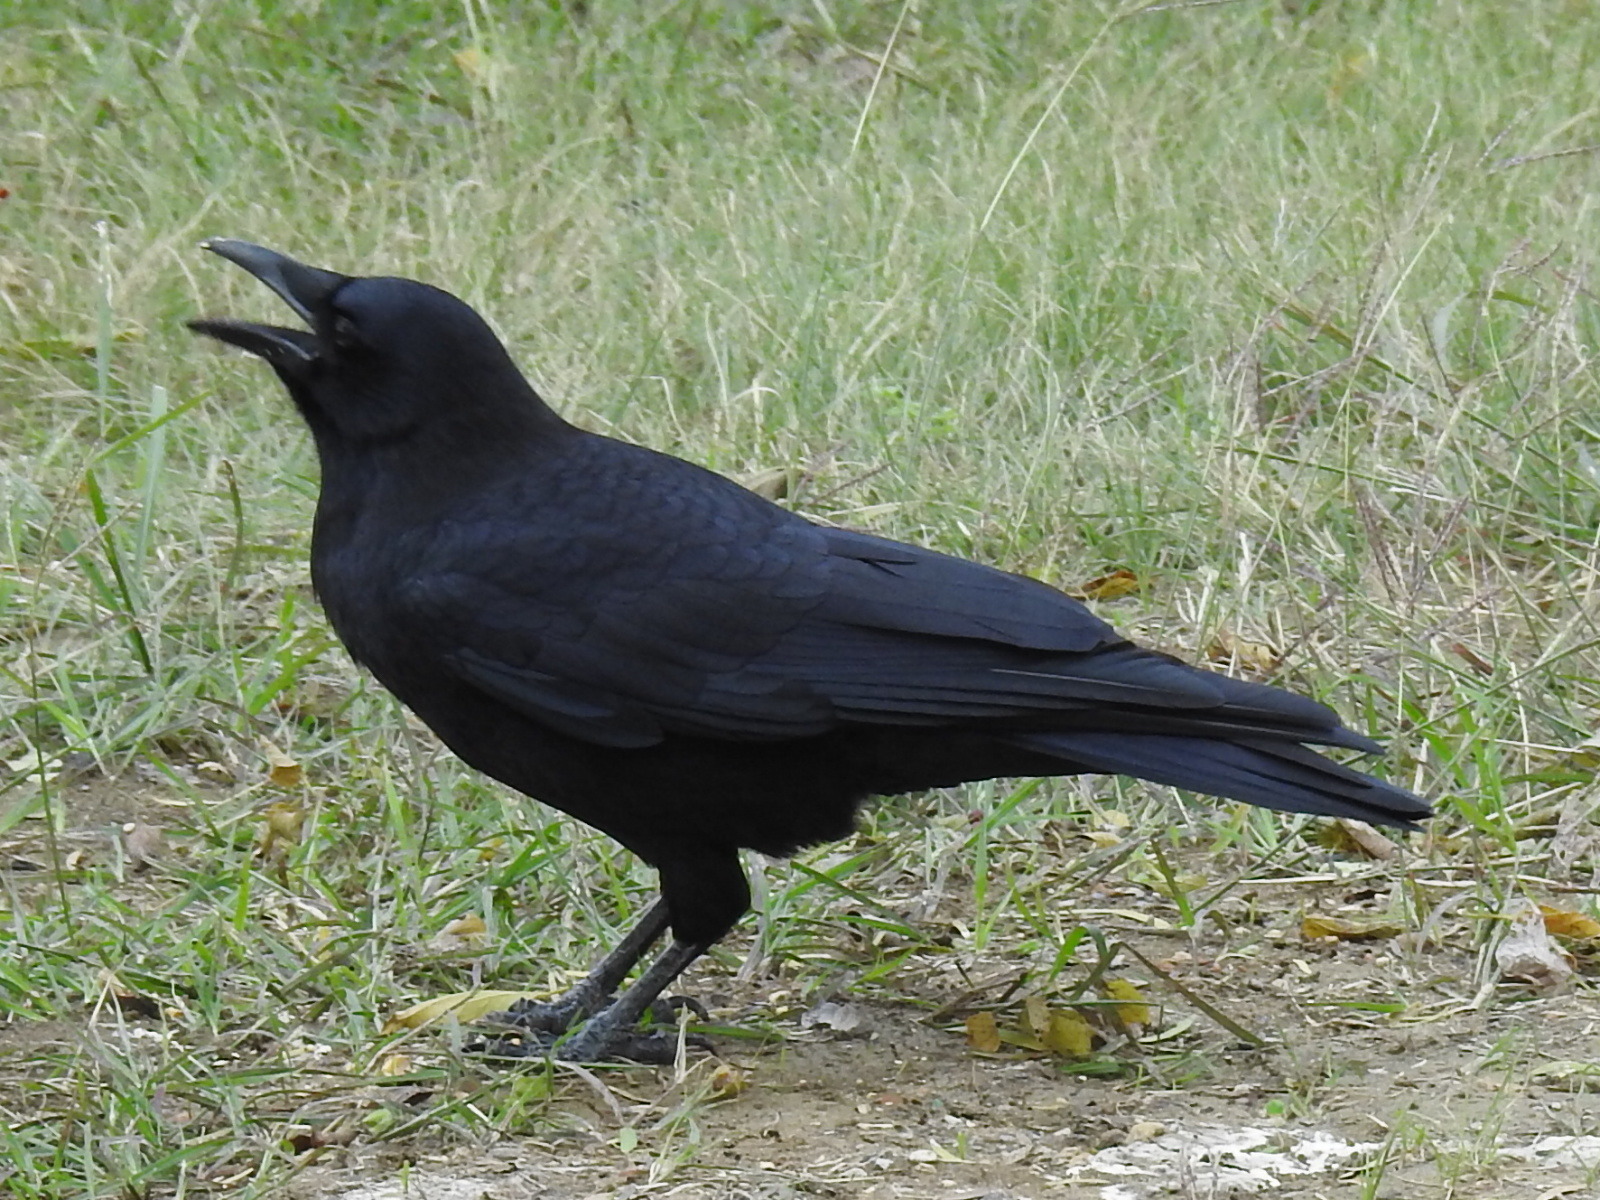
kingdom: Animalia
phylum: Chordata
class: Aves
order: Passeriformes
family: Corvidae
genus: Corvus
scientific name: Corvus brachyrhynchos
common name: American crow
